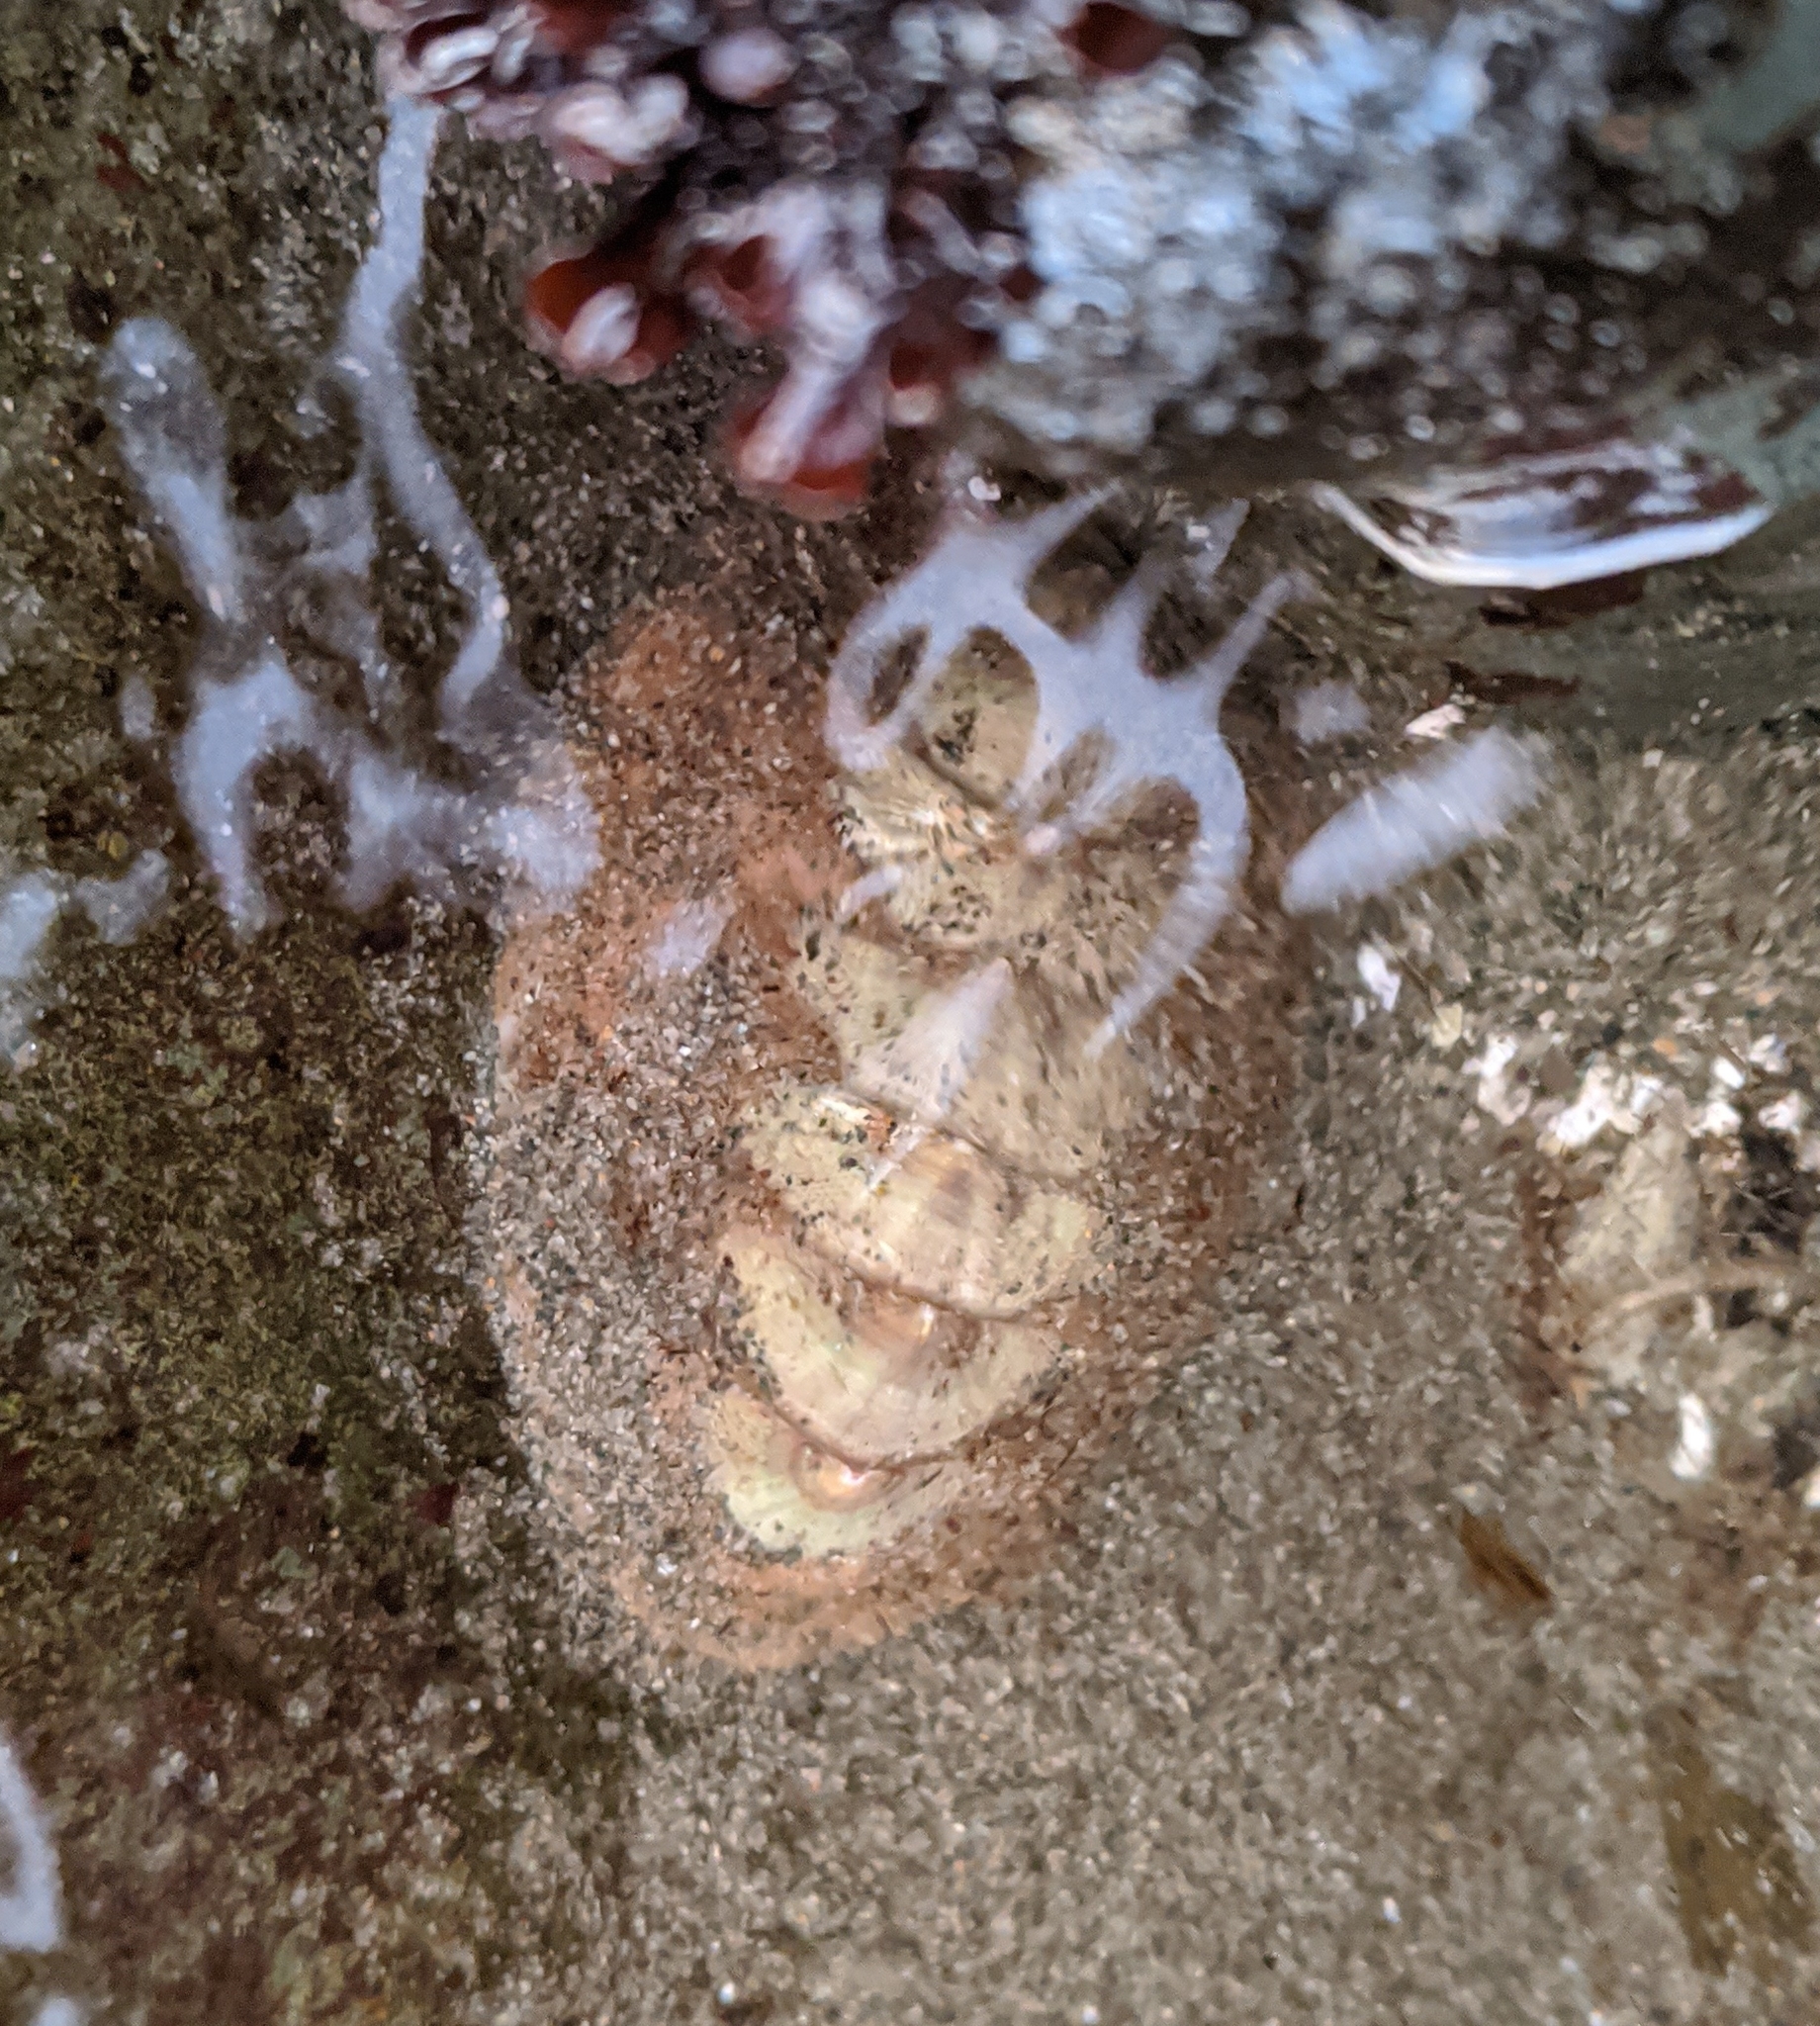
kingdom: Animalia
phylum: Mollusca
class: Polyplacophora
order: Chitonida
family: Mopaliidae
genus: Mopalia
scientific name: Mopalia lignosa
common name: Woody chiton
